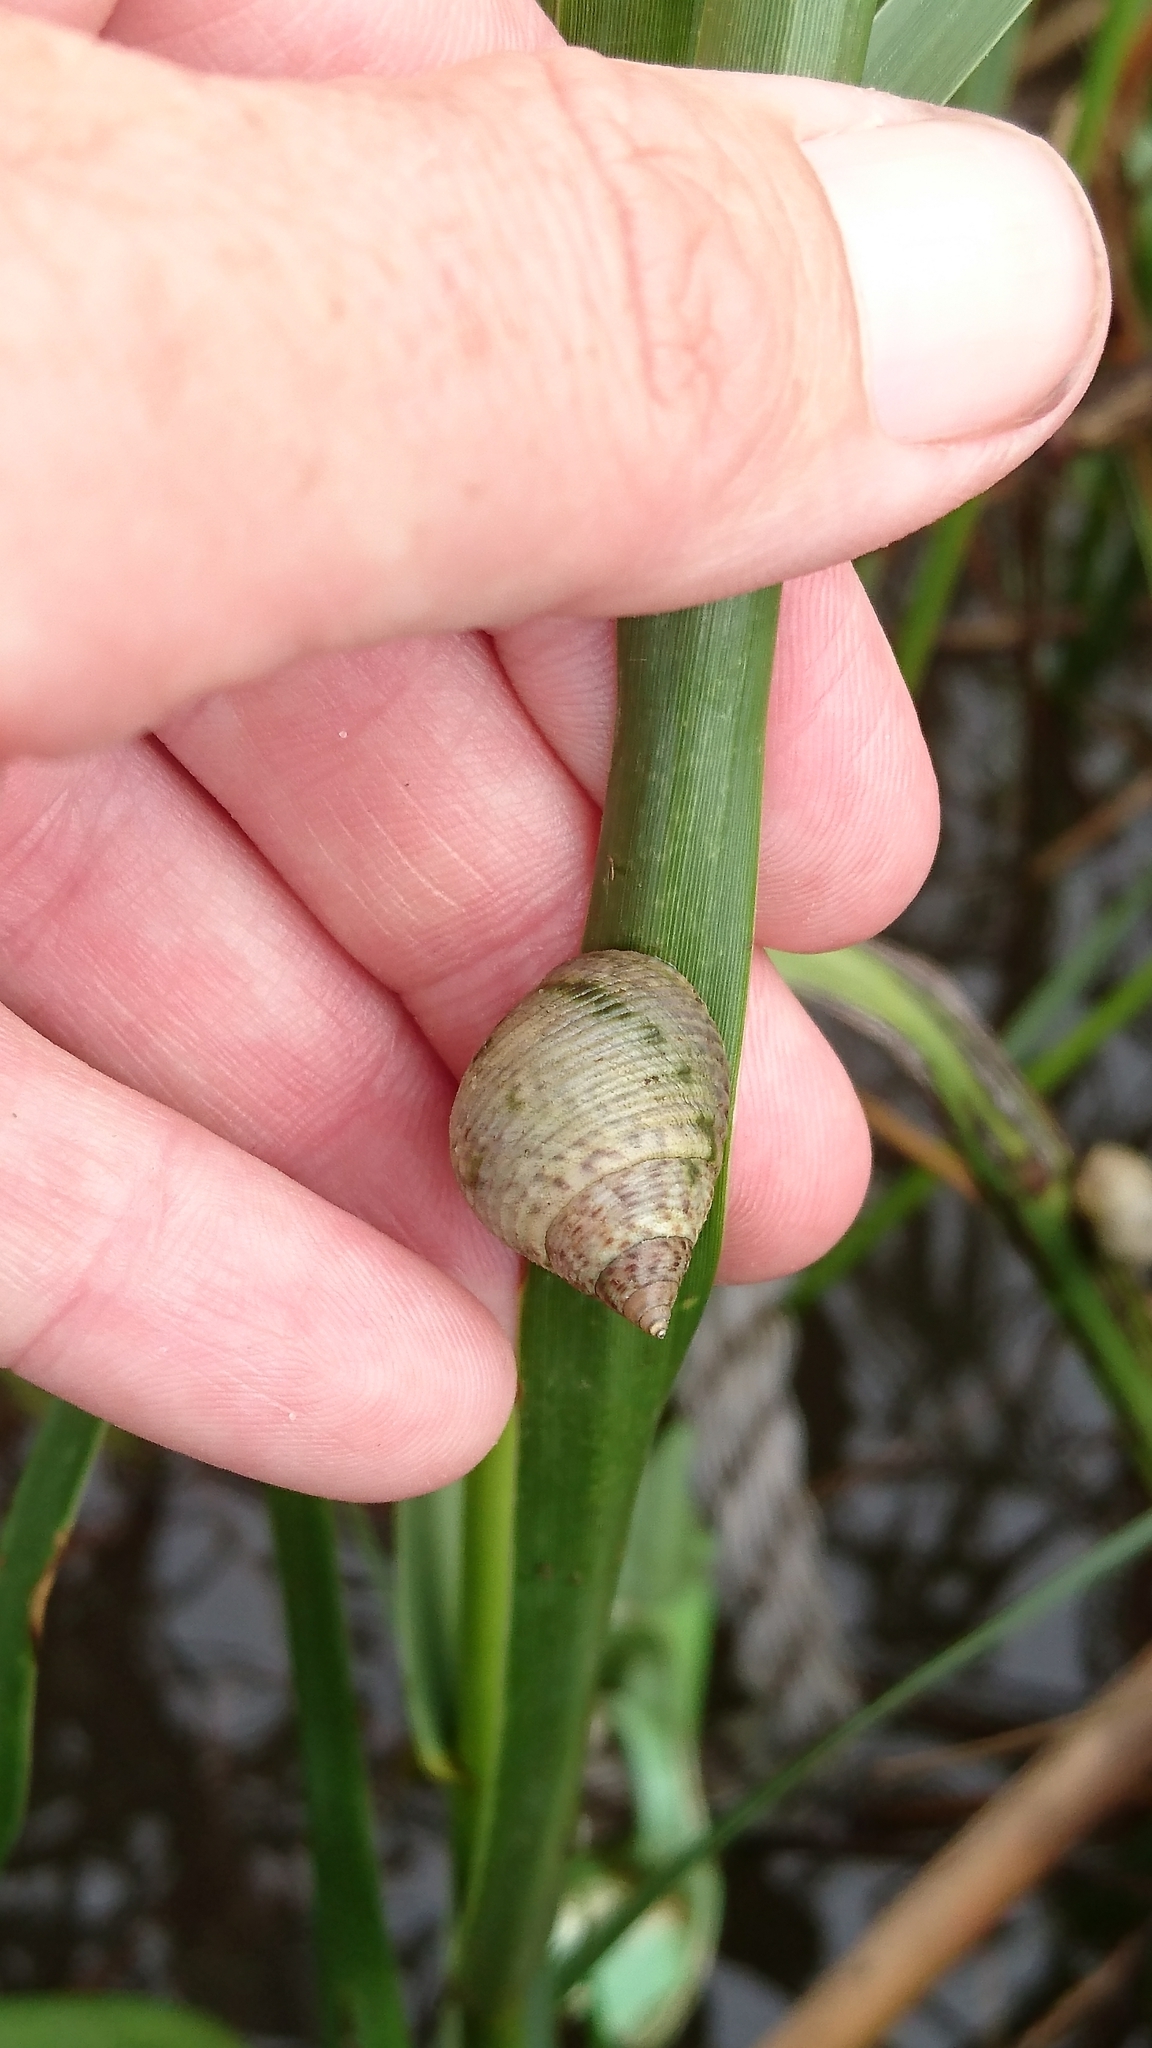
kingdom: Animalia
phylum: Mollusca
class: Gastropoda
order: Littorinimorpha
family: Littorinidae
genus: Littoraria
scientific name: Littoraria irrorata
